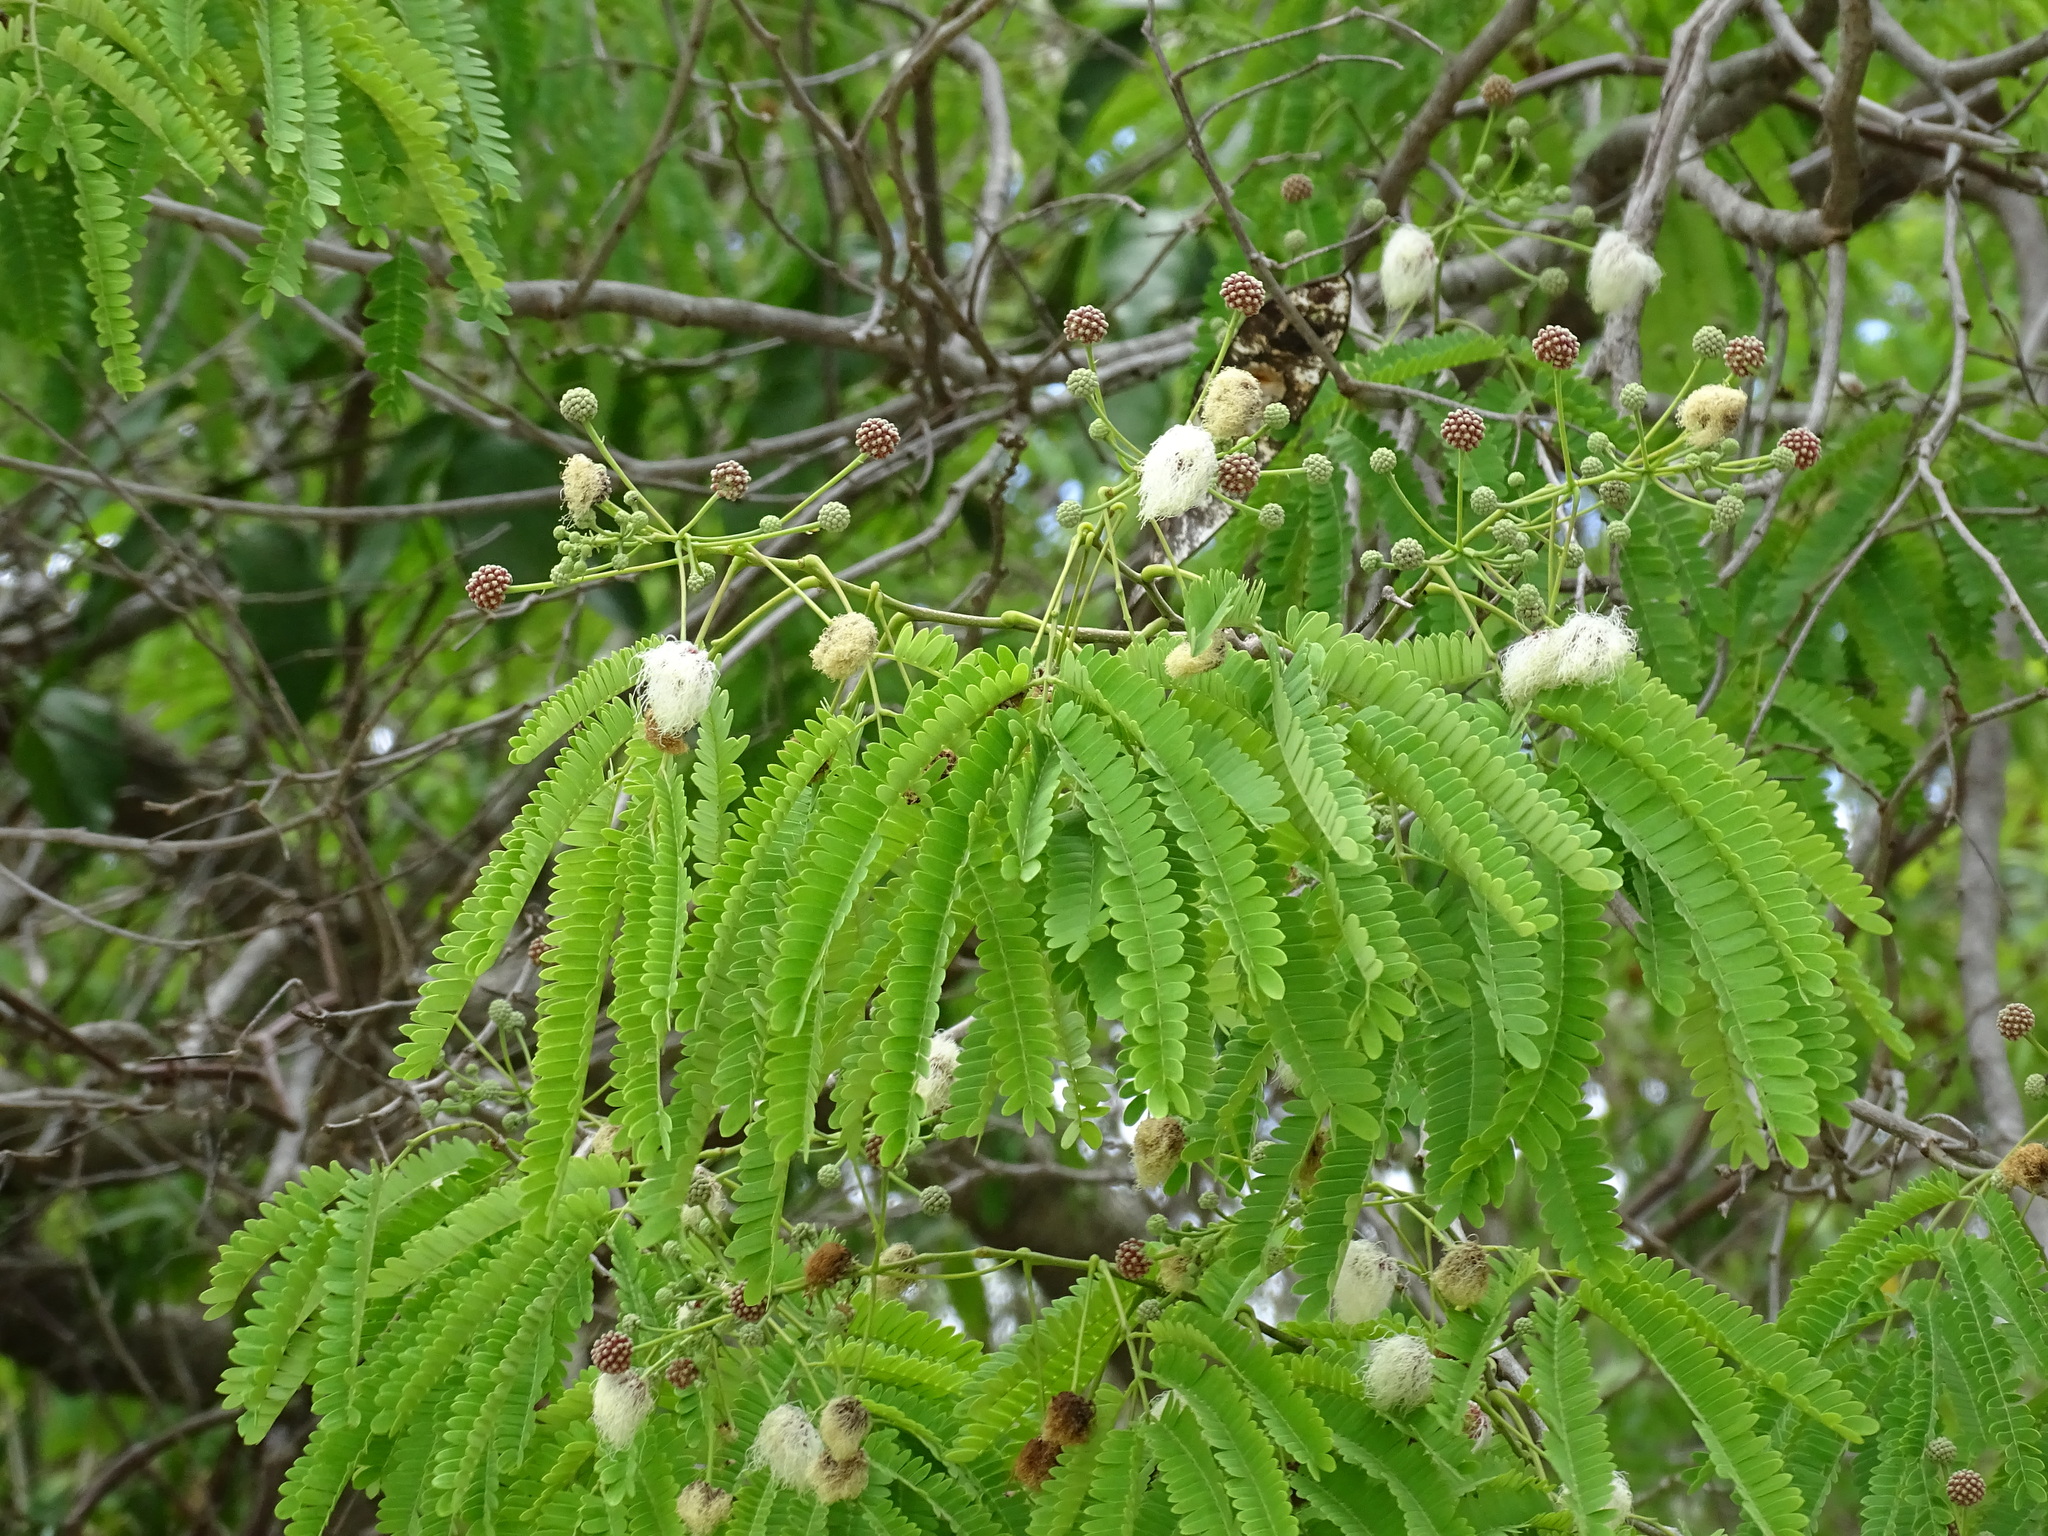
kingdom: Plantae
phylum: Tracheophyta
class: Magnoliopsida
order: Fabales
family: Fabaceae
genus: Lysiloma
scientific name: Lysiloma latisiliquum
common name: Wild tamarind
